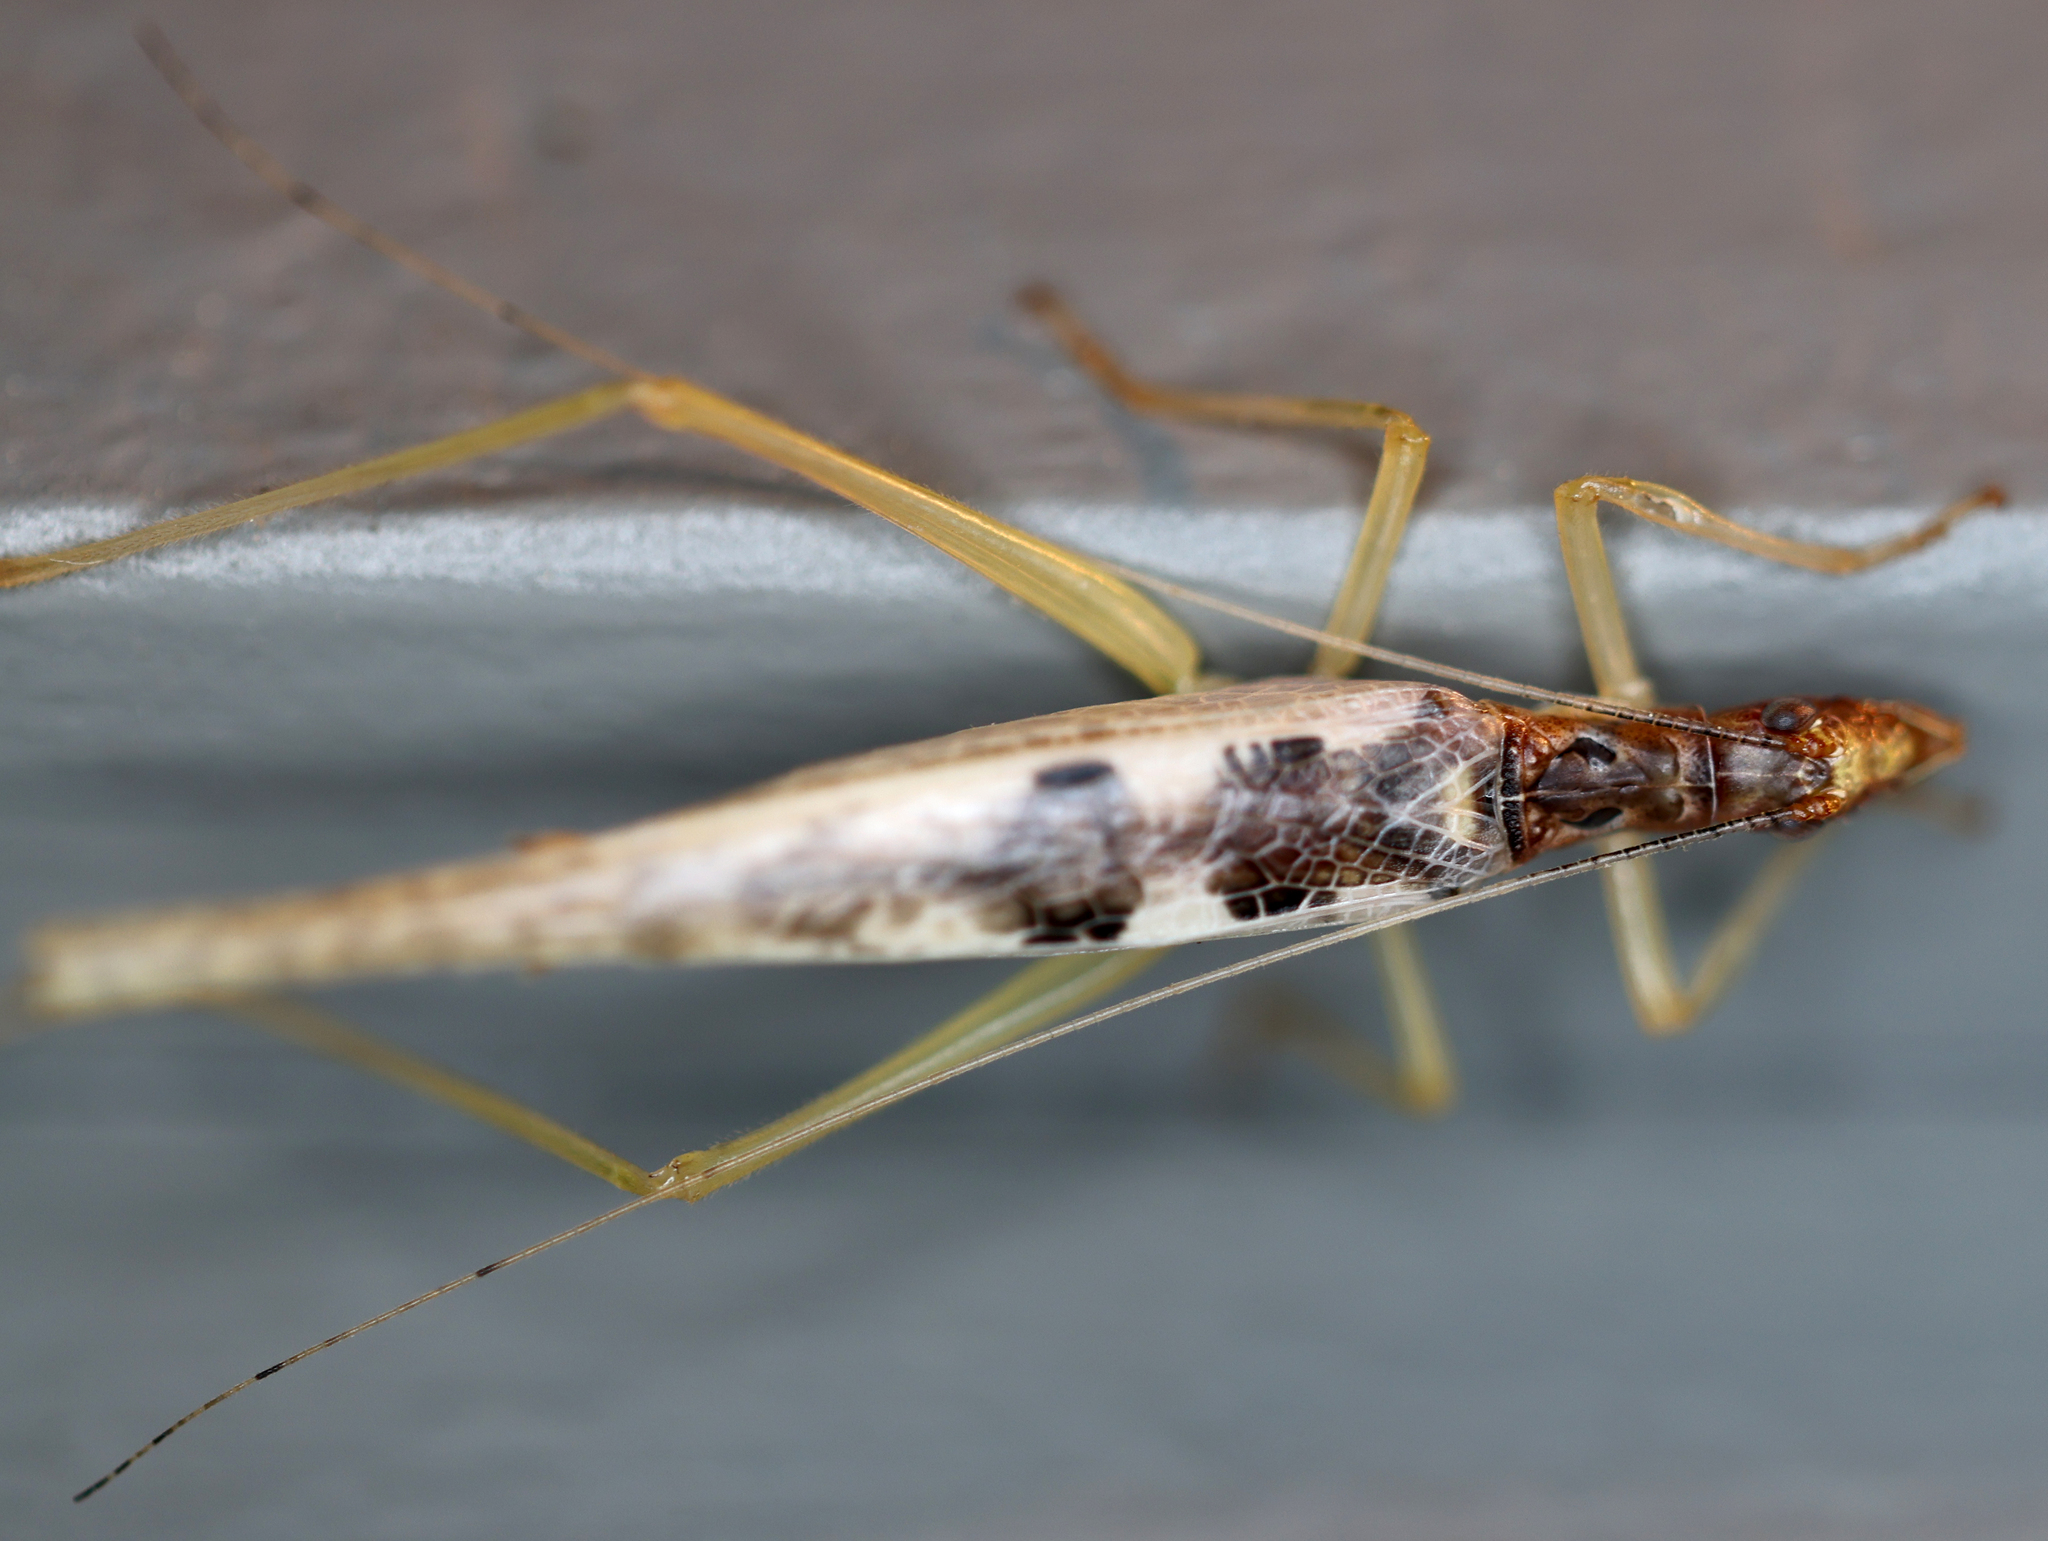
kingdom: Animalia
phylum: Arthropoda
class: Insecta
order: Orthoptera
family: Gryllidae
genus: Neoxabea
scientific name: Neoxabea bipunctata
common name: Two-spotted tree cricket
